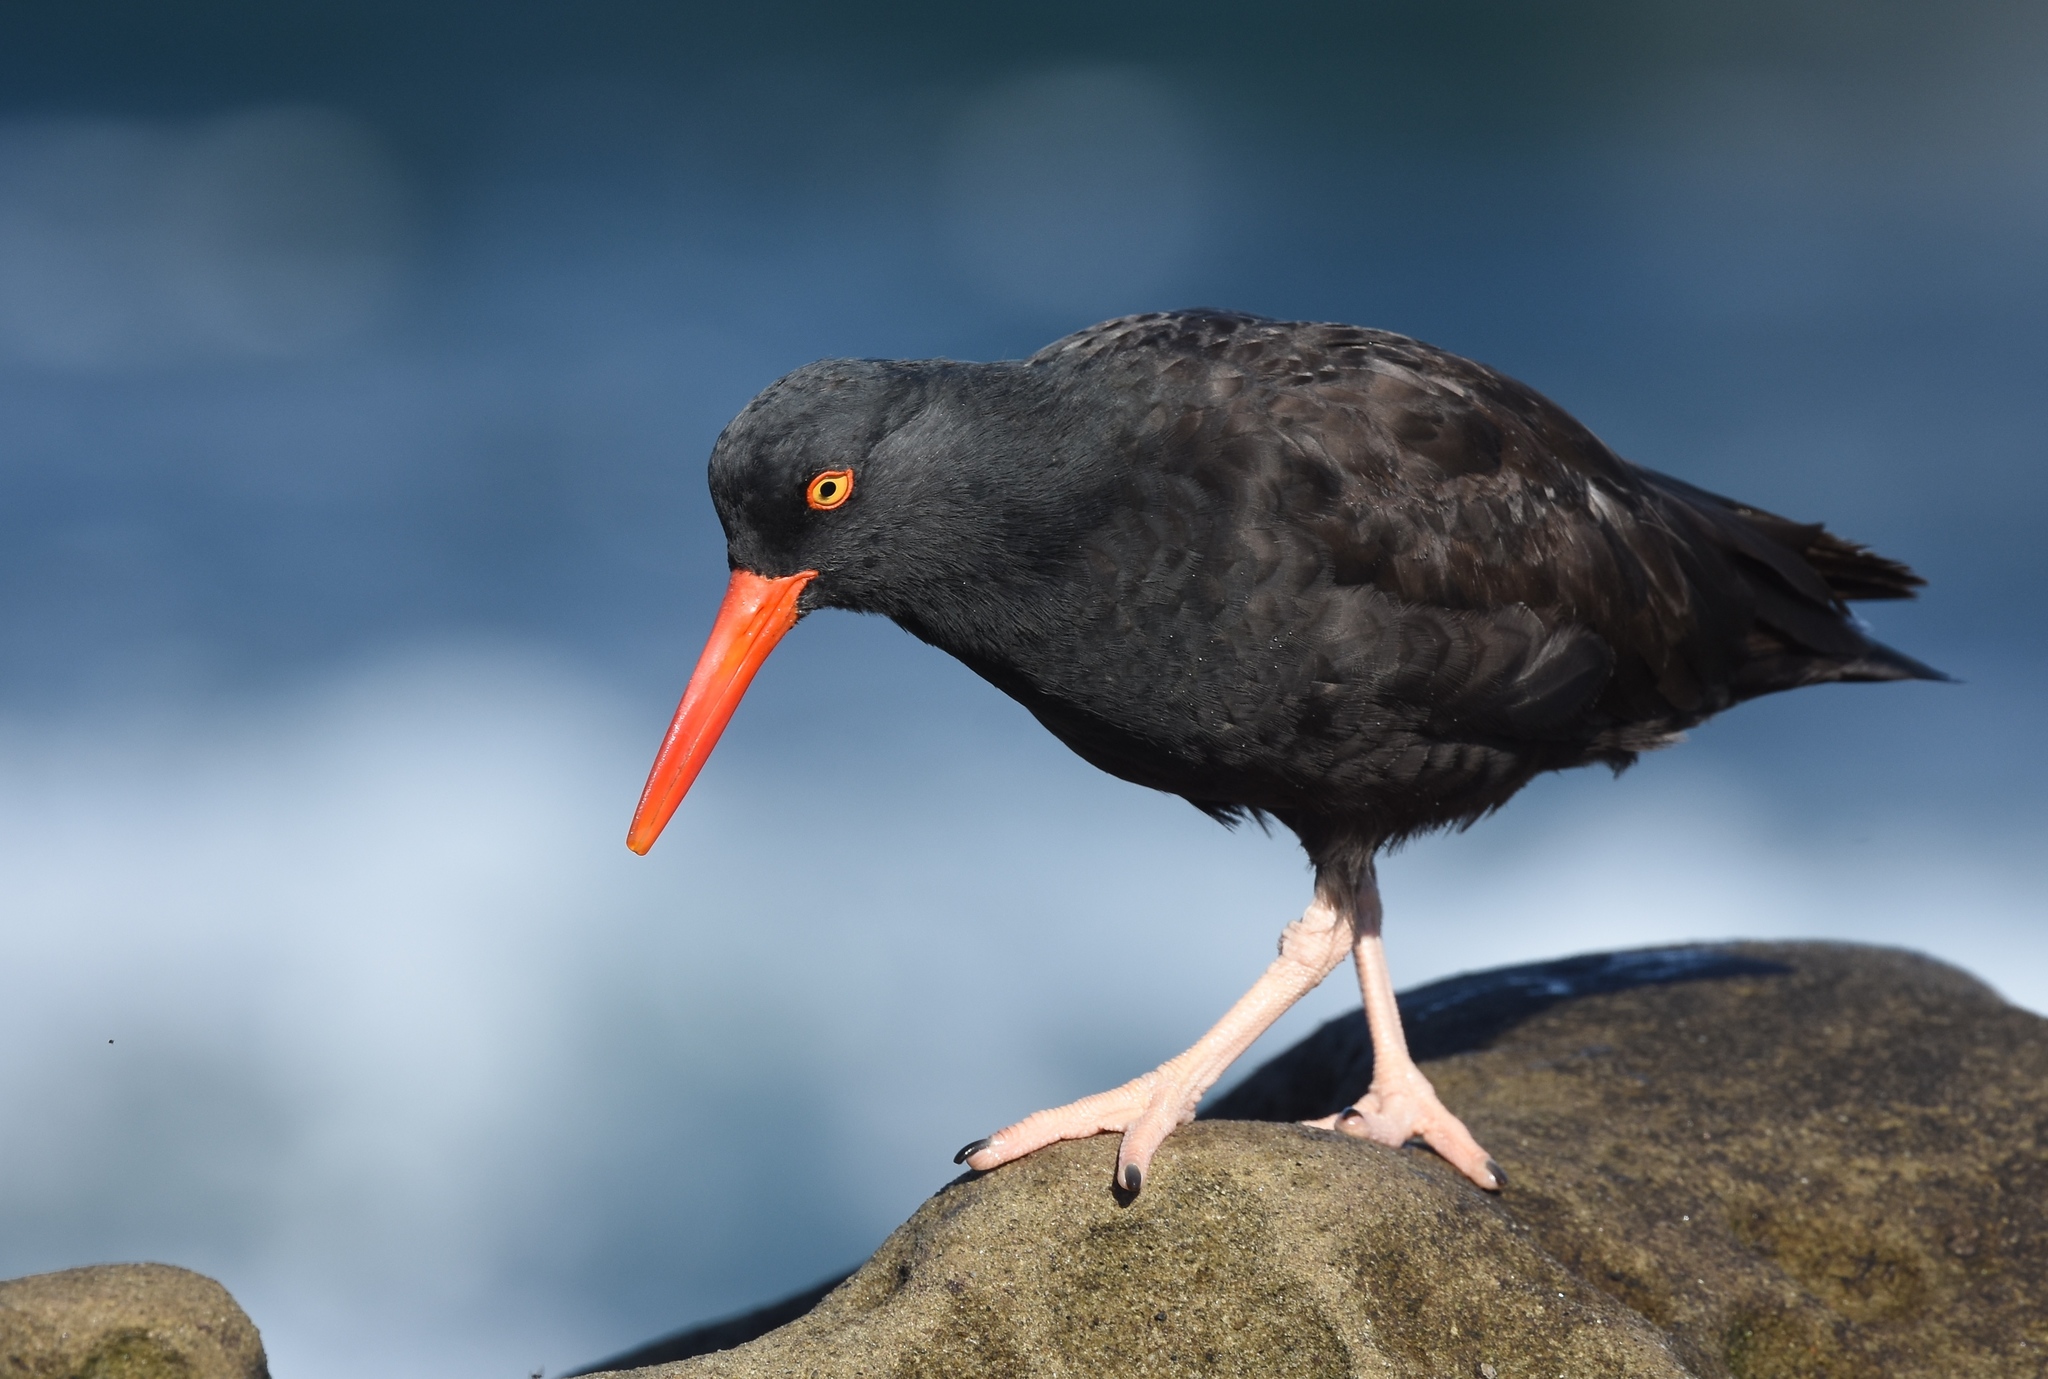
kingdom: Animalia
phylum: Chordata
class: Aves
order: Charadriiformes
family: Haematopodidae
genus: Haematopus
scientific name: Haematopus bachmani
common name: Black oystercatcher
